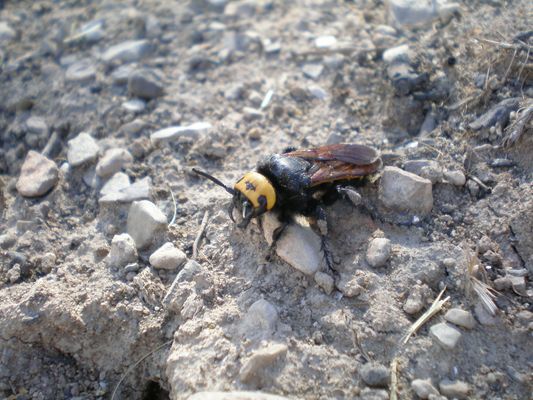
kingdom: Animalia
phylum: Arthropoda
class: Insecta
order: Hymenoptera
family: Scoliidae
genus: Megascolia
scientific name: Megascolia maculata
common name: Mammoth wasp
